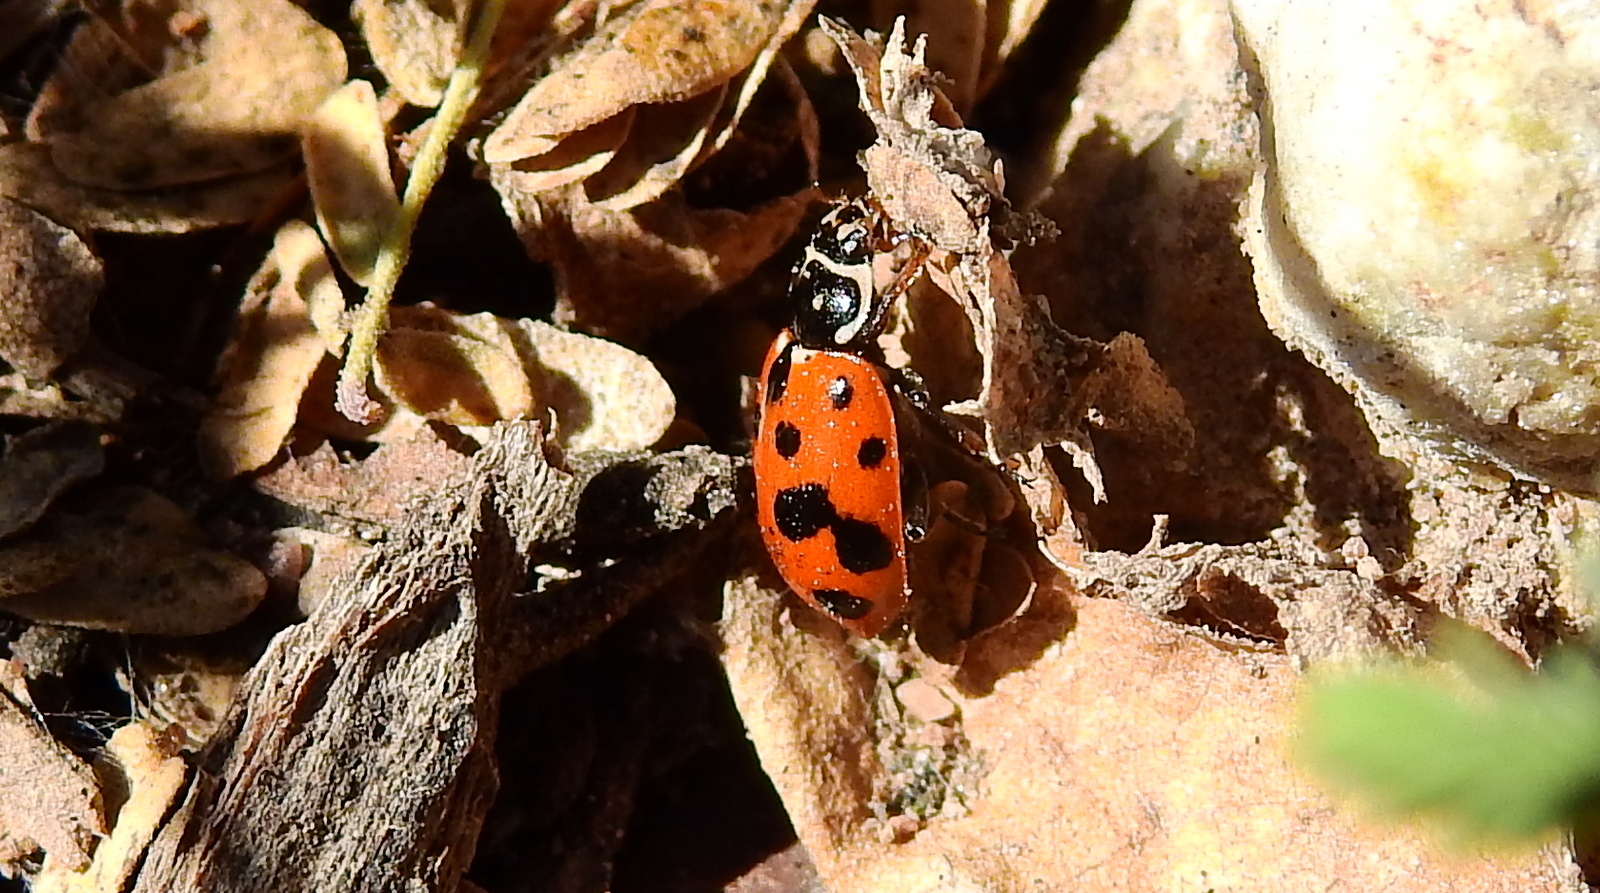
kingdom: Animalia
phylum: Arthropoda
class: Insecta
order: Coleoptera
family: Coccinellidae
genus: Hippodamia
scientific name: Hippodamia variegata
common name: Ladybird beetle
